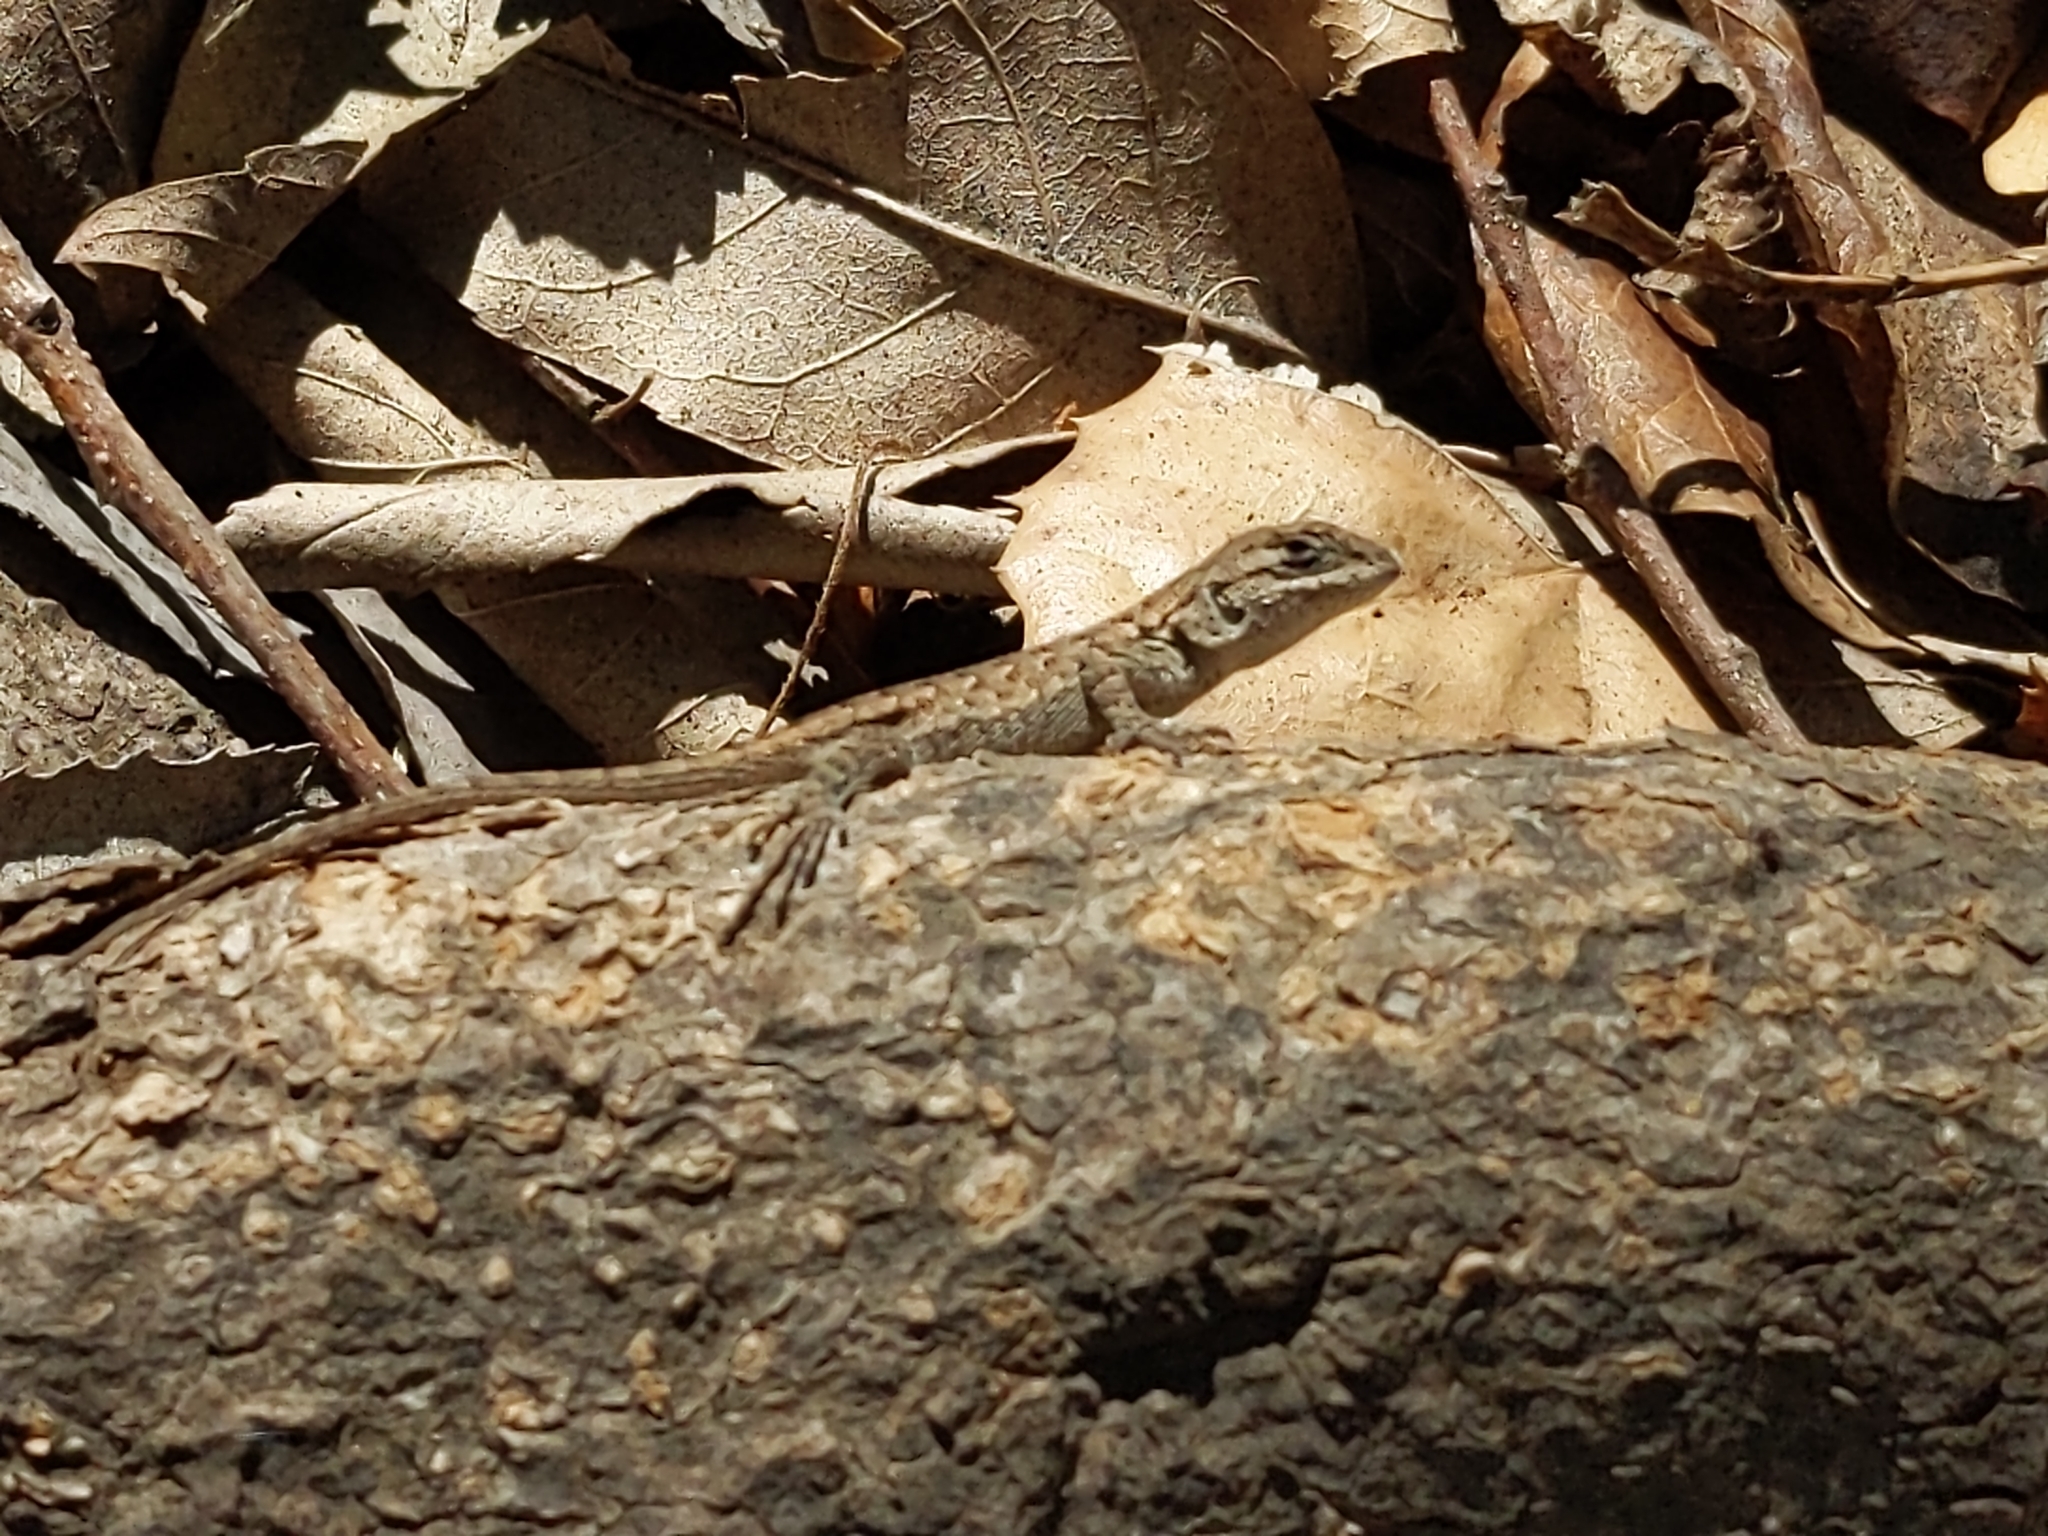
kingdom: Animalia
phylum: Chordata
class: Squamata
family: Phrynosomatidae
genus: Sceloporus
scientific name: Sceloporus occidentalis
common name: Western fence lizard
